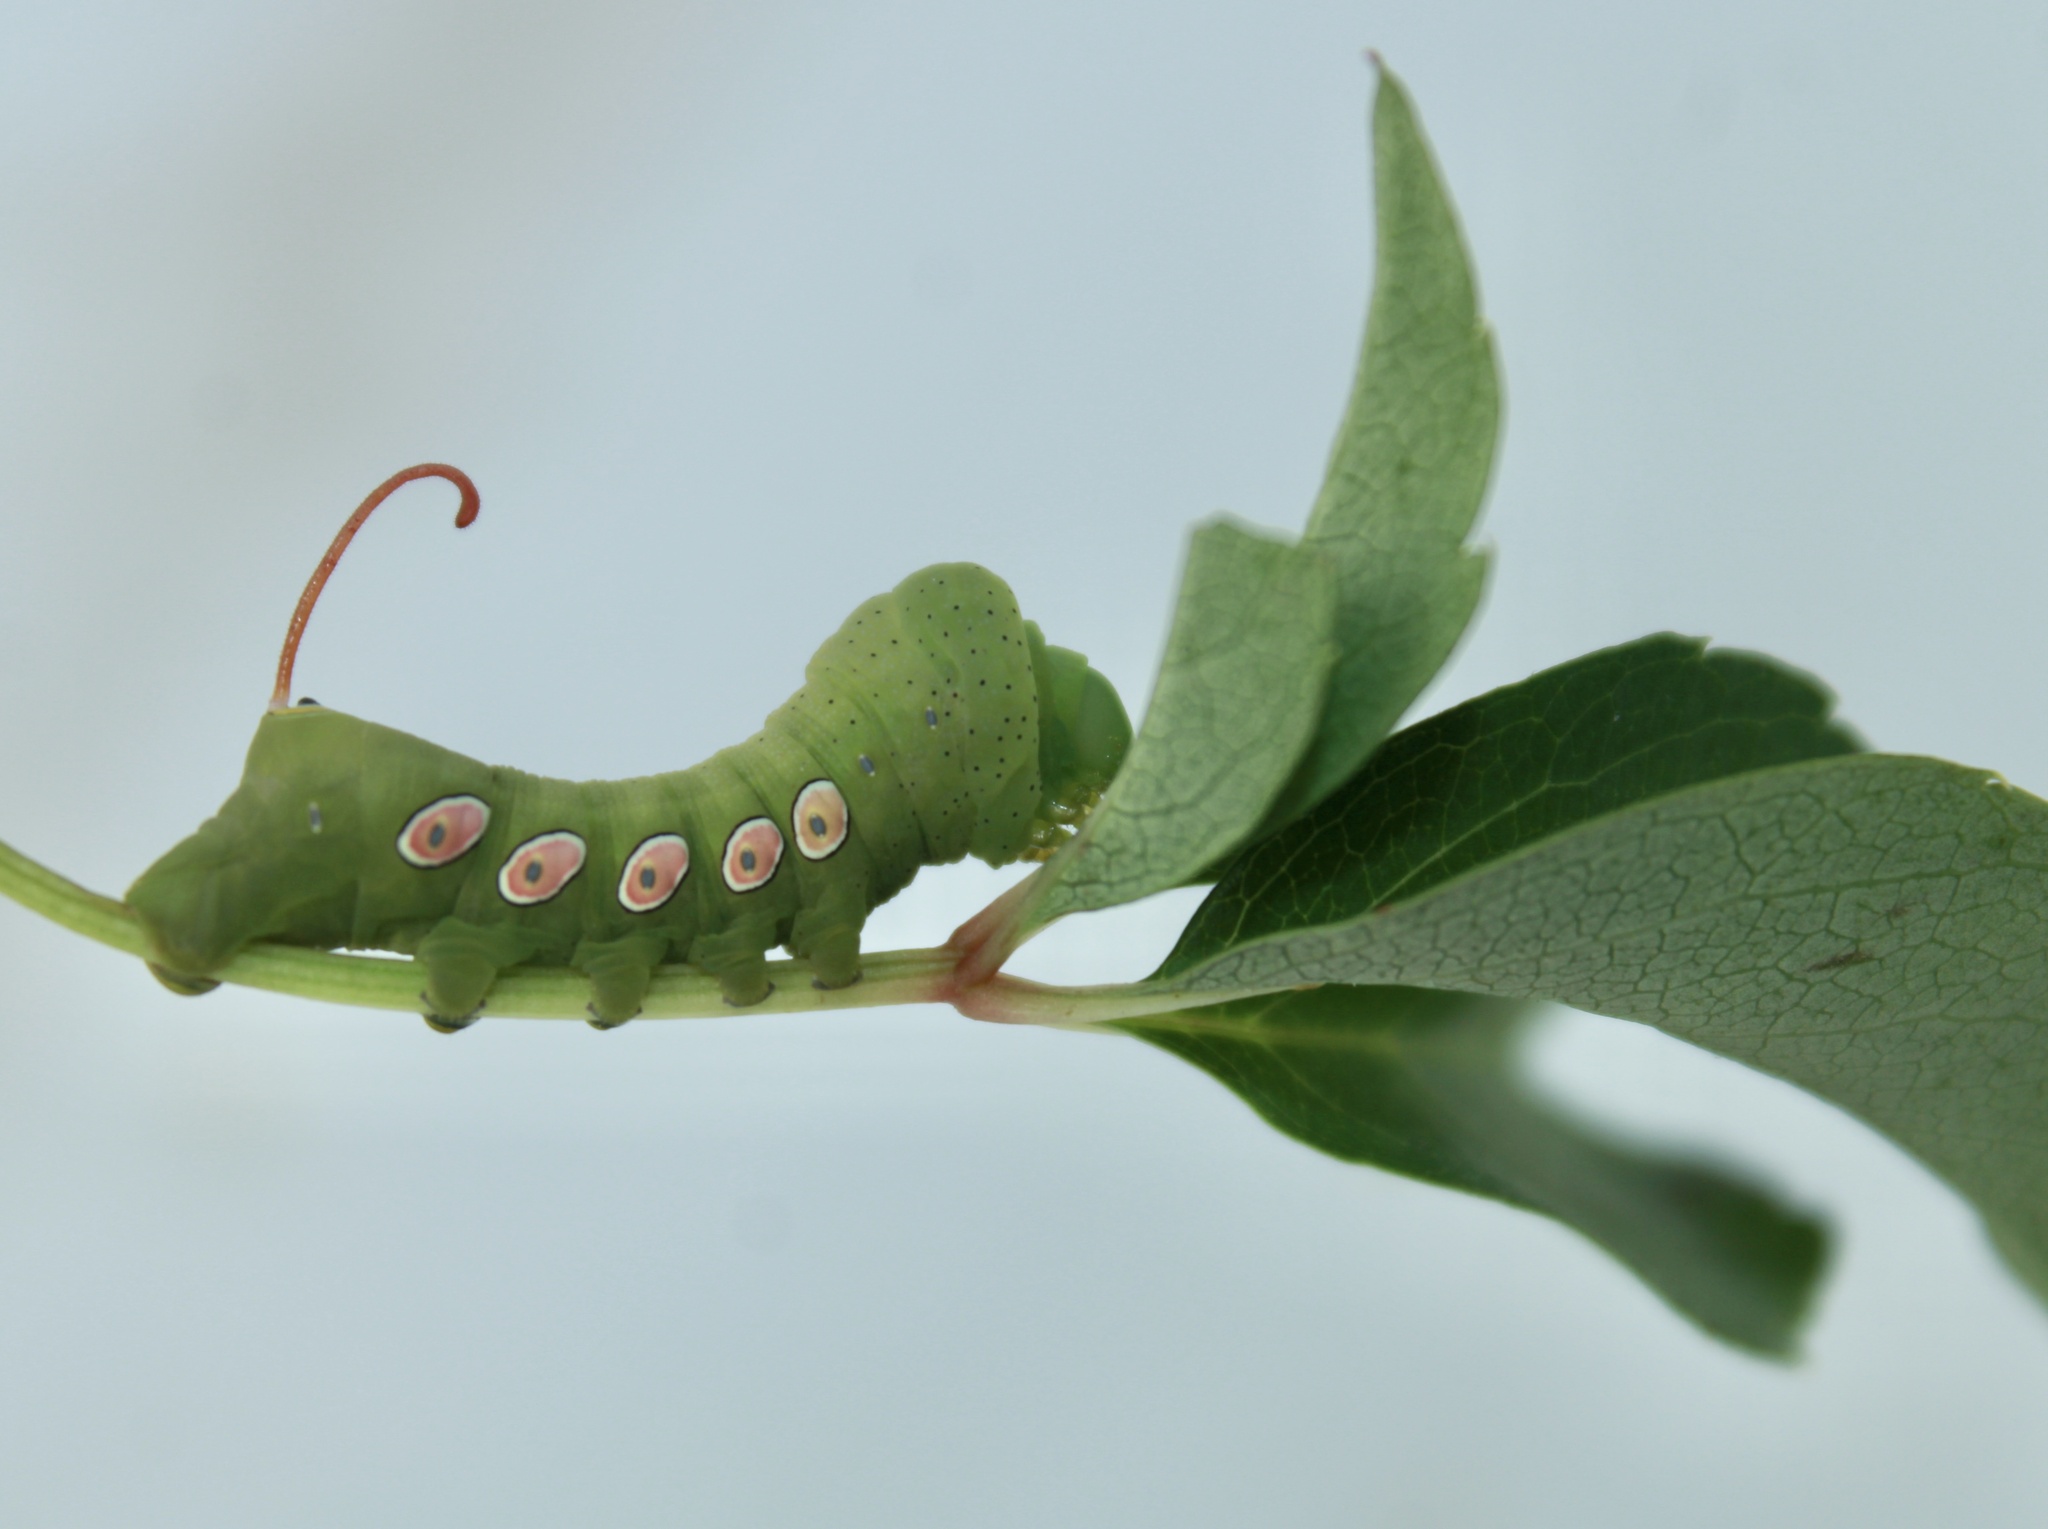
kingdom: Animalia
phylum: Arthropoda
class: Insecta
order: Lepidoptera
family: Sphingidae
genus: Eumorpha
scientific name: Eumorpha pandorus
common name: Pandora sphinx
